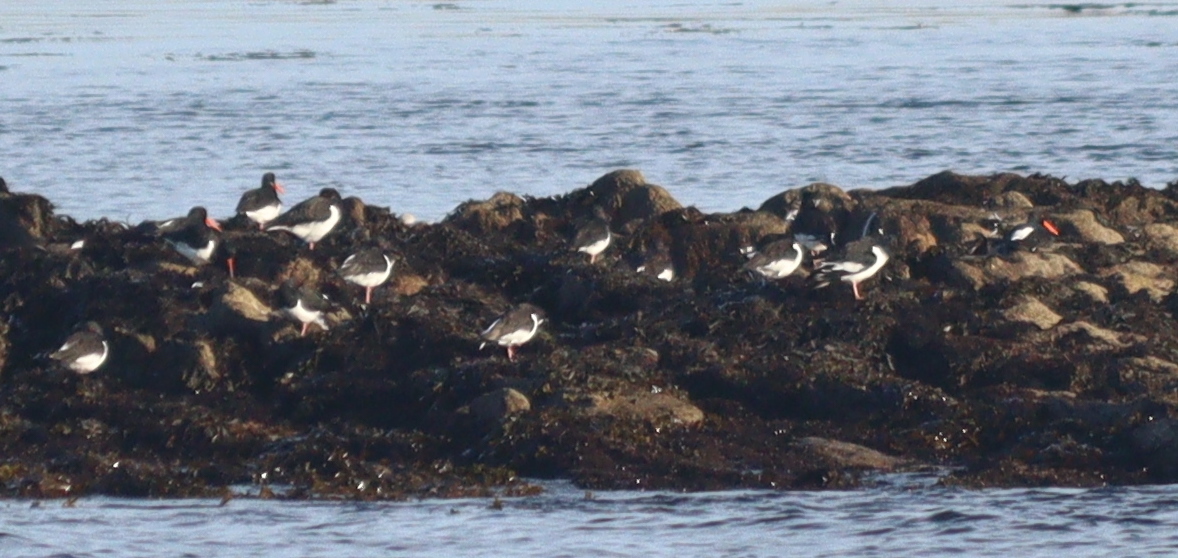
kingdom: Animalia
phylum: Chordata
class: Aves
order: Charadriiformes
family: Haematopodidae
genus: Haematopus
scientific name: Haematopus ostralegus
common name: Eurasian oystercatcher
